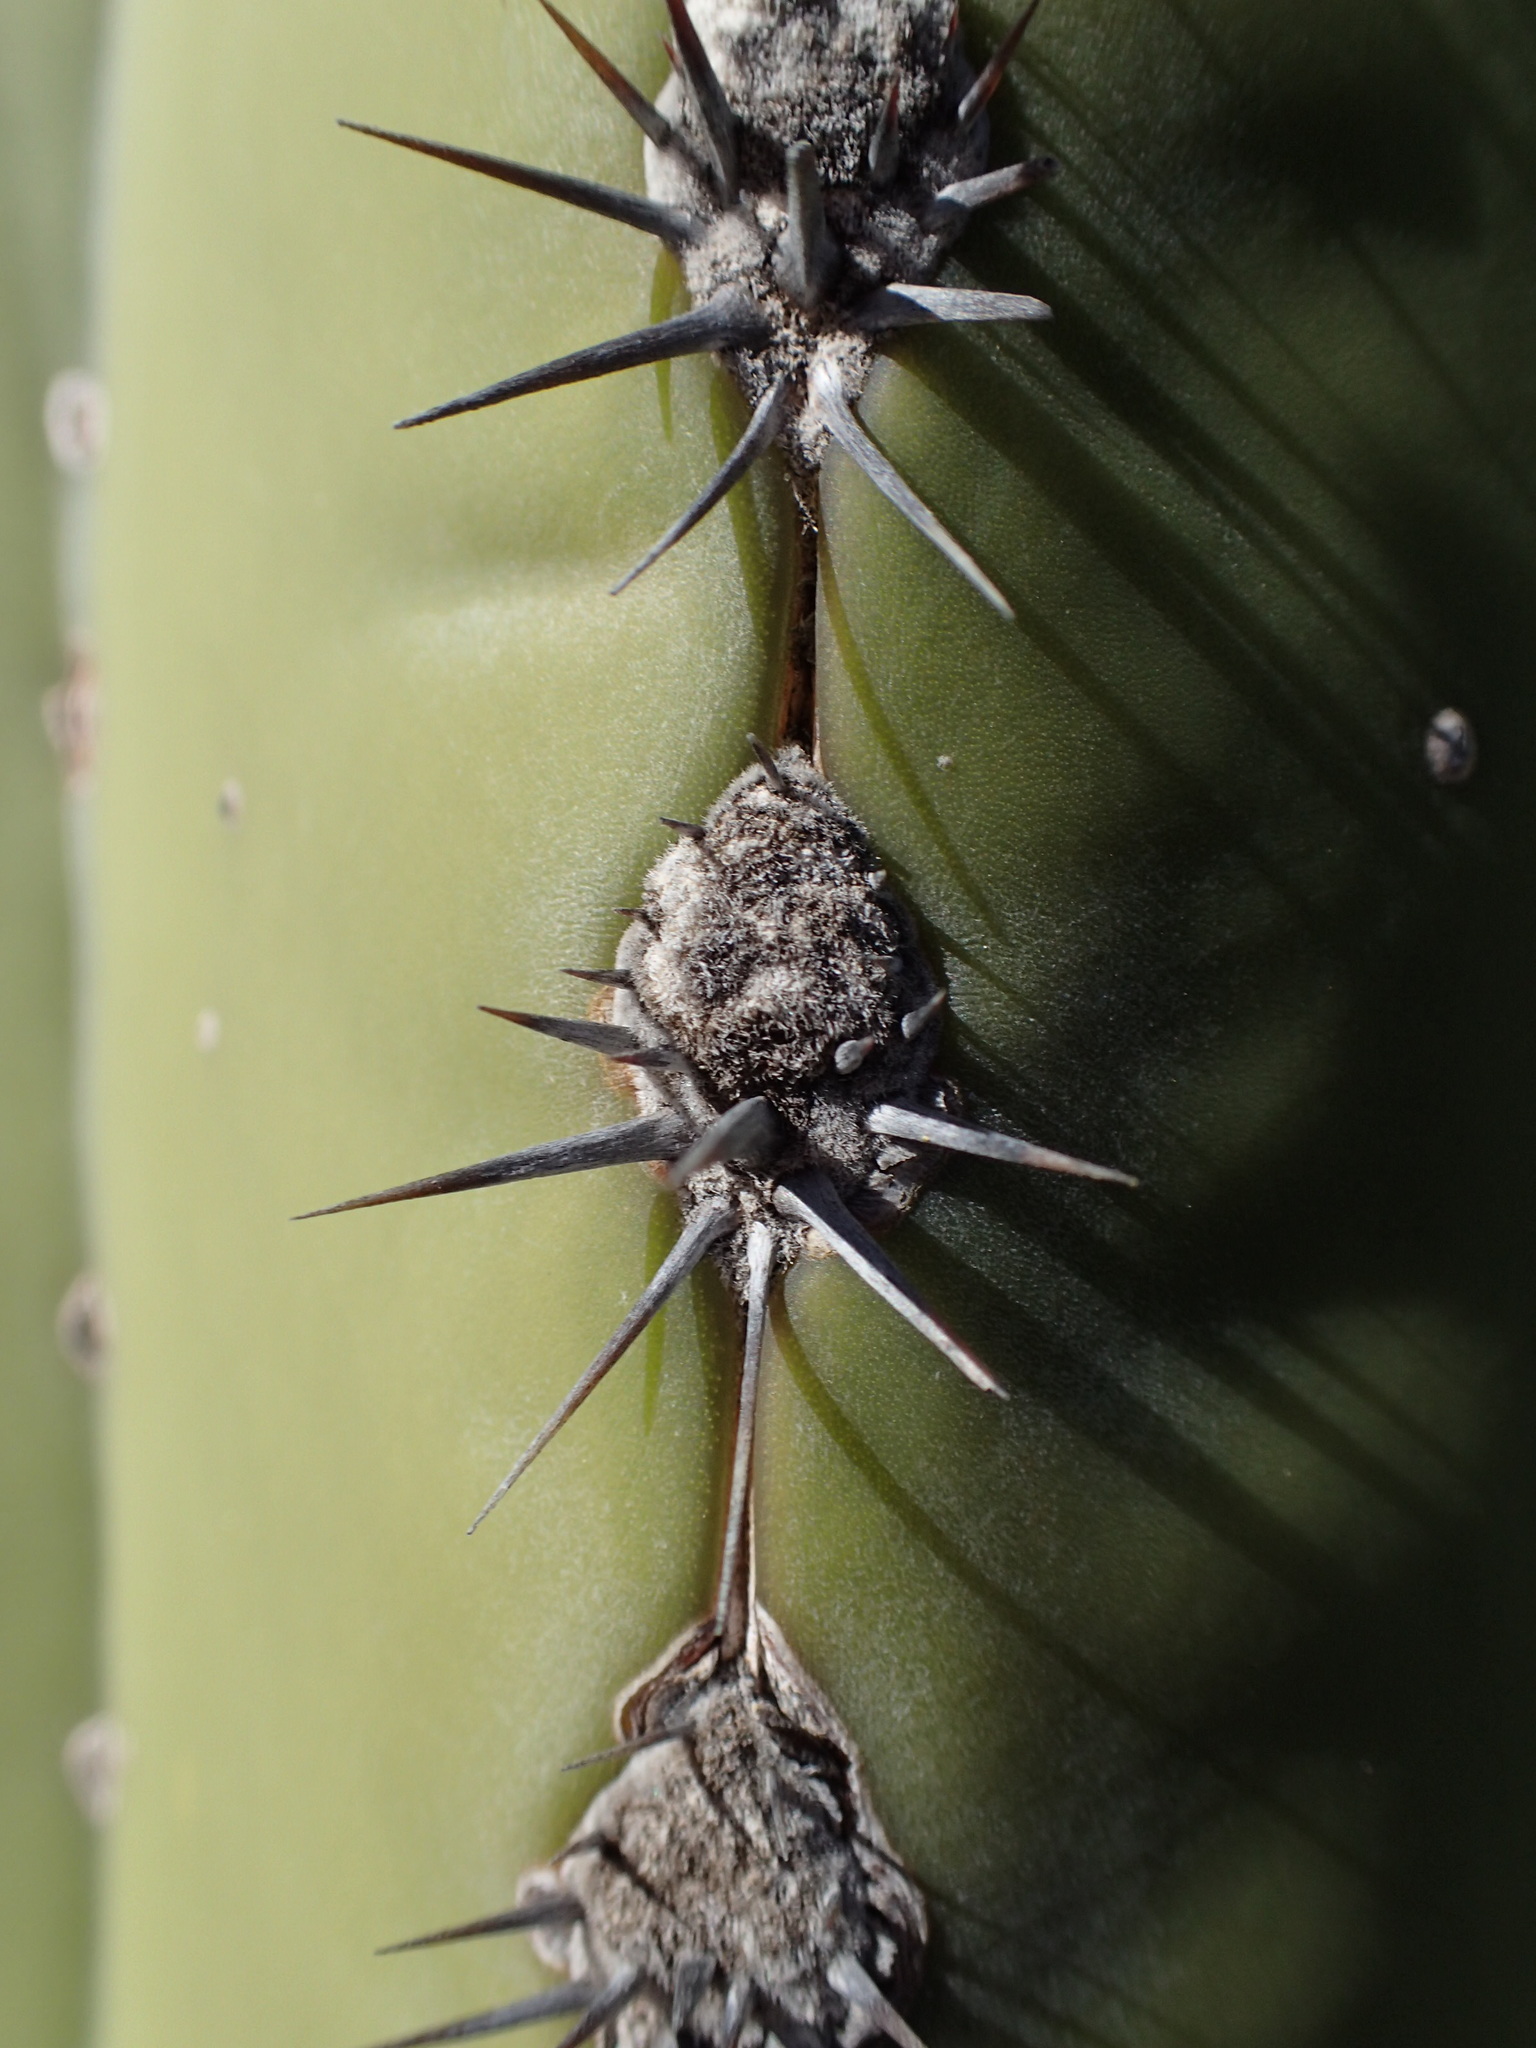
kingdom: Plantae
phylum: Tracheophyta
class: Magnoliopsida
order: Caryophyllales
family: Cactaceae
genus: Pachycereus
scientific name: Pachycereus pringlei
